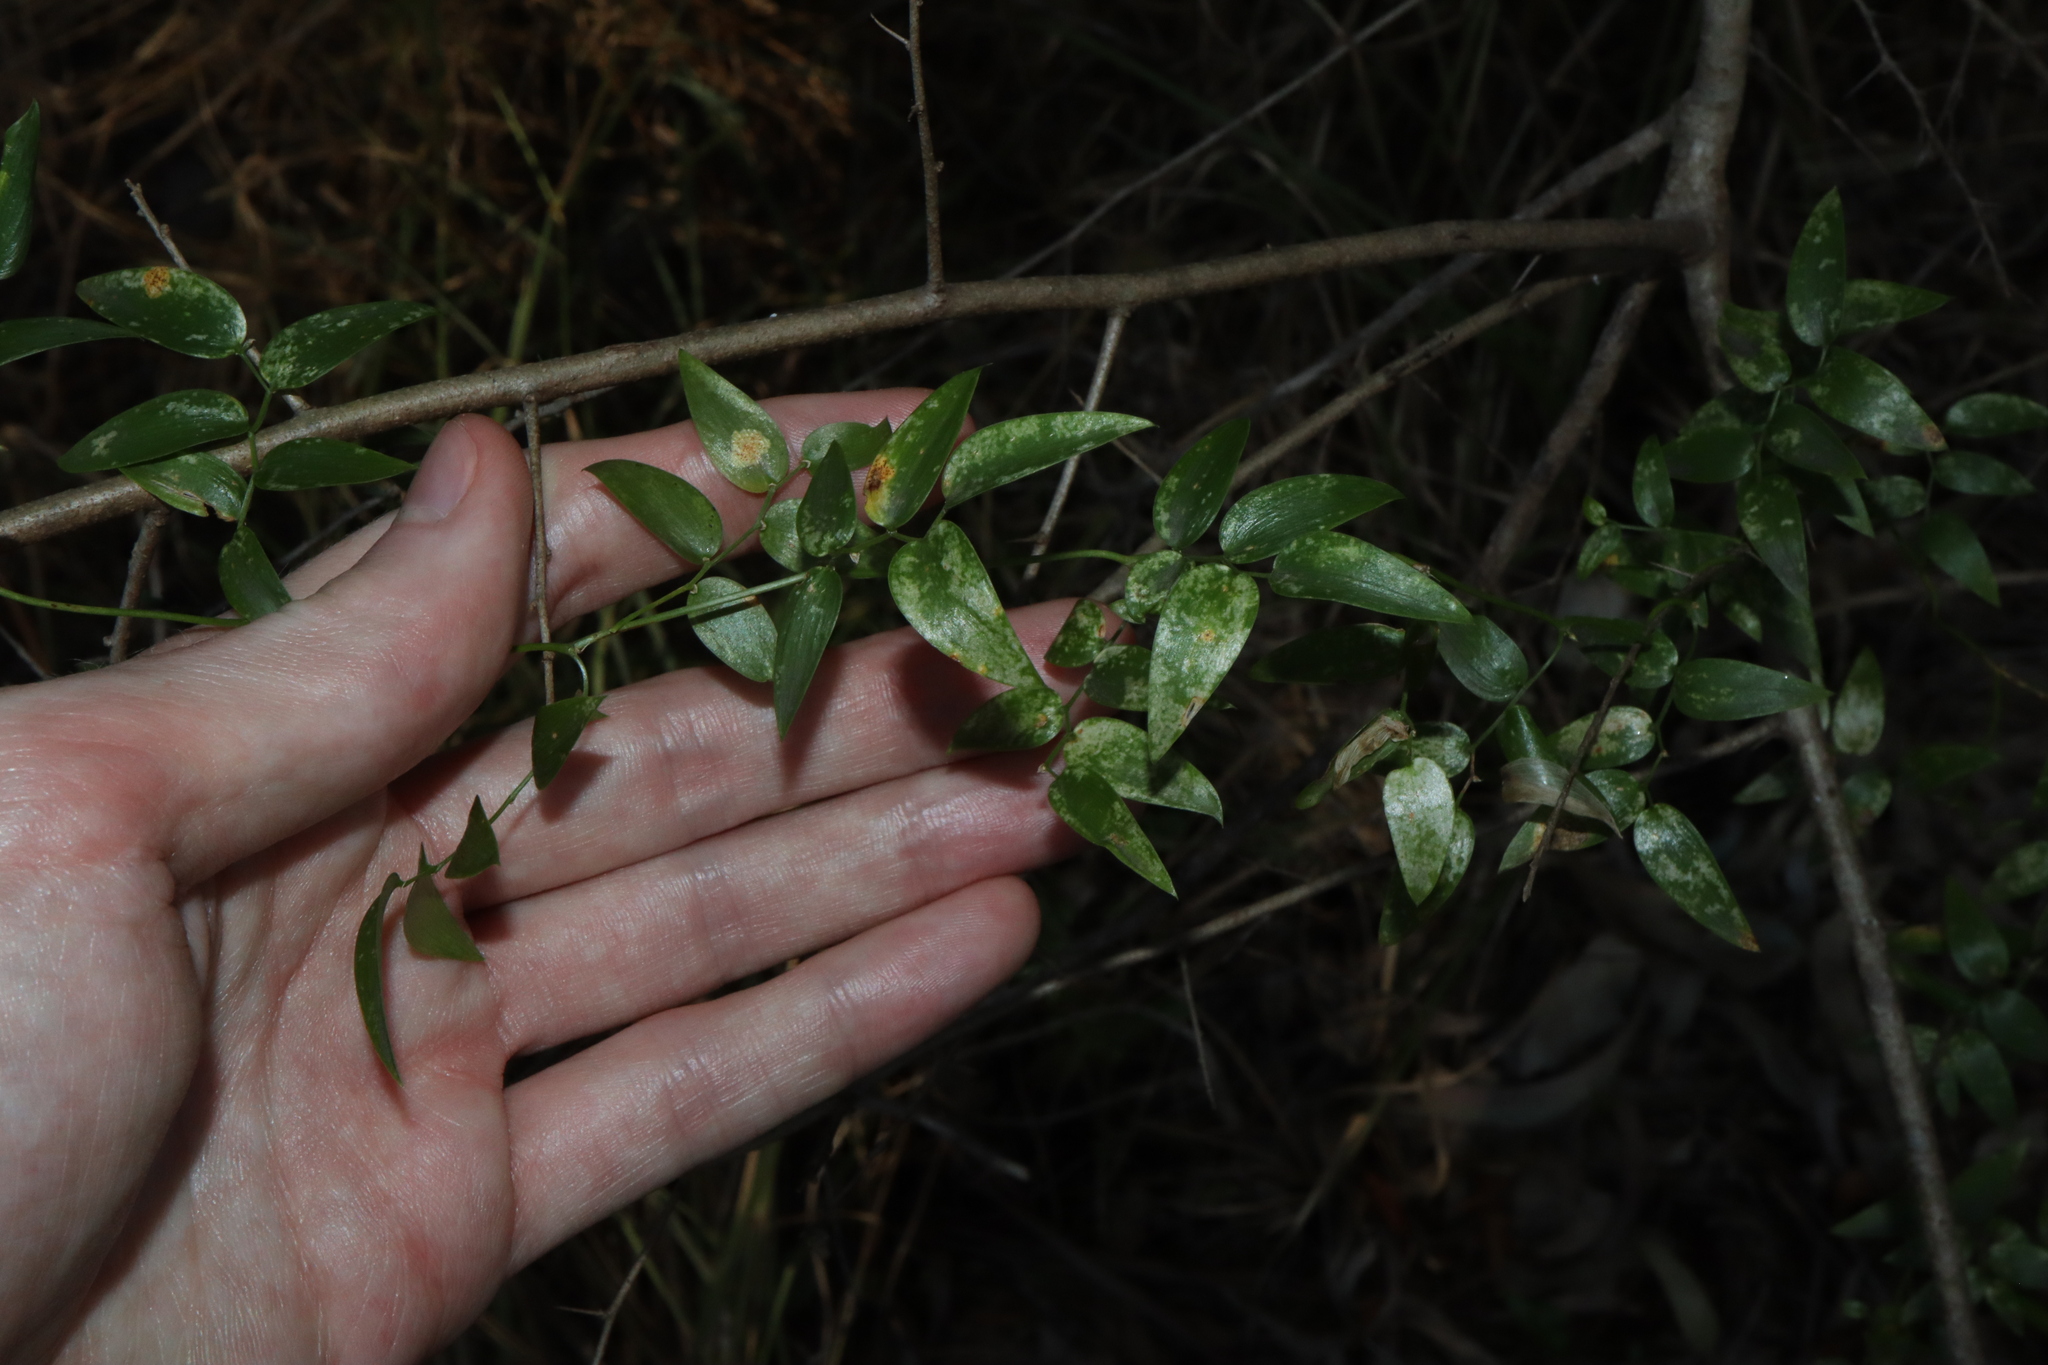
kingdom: Fungi
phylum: Basidiomycota
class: Pucciniomycetes
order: Pucciniales
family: Pucciniaceae
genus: Puccinia
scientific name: Puccinia myrsiphylli
